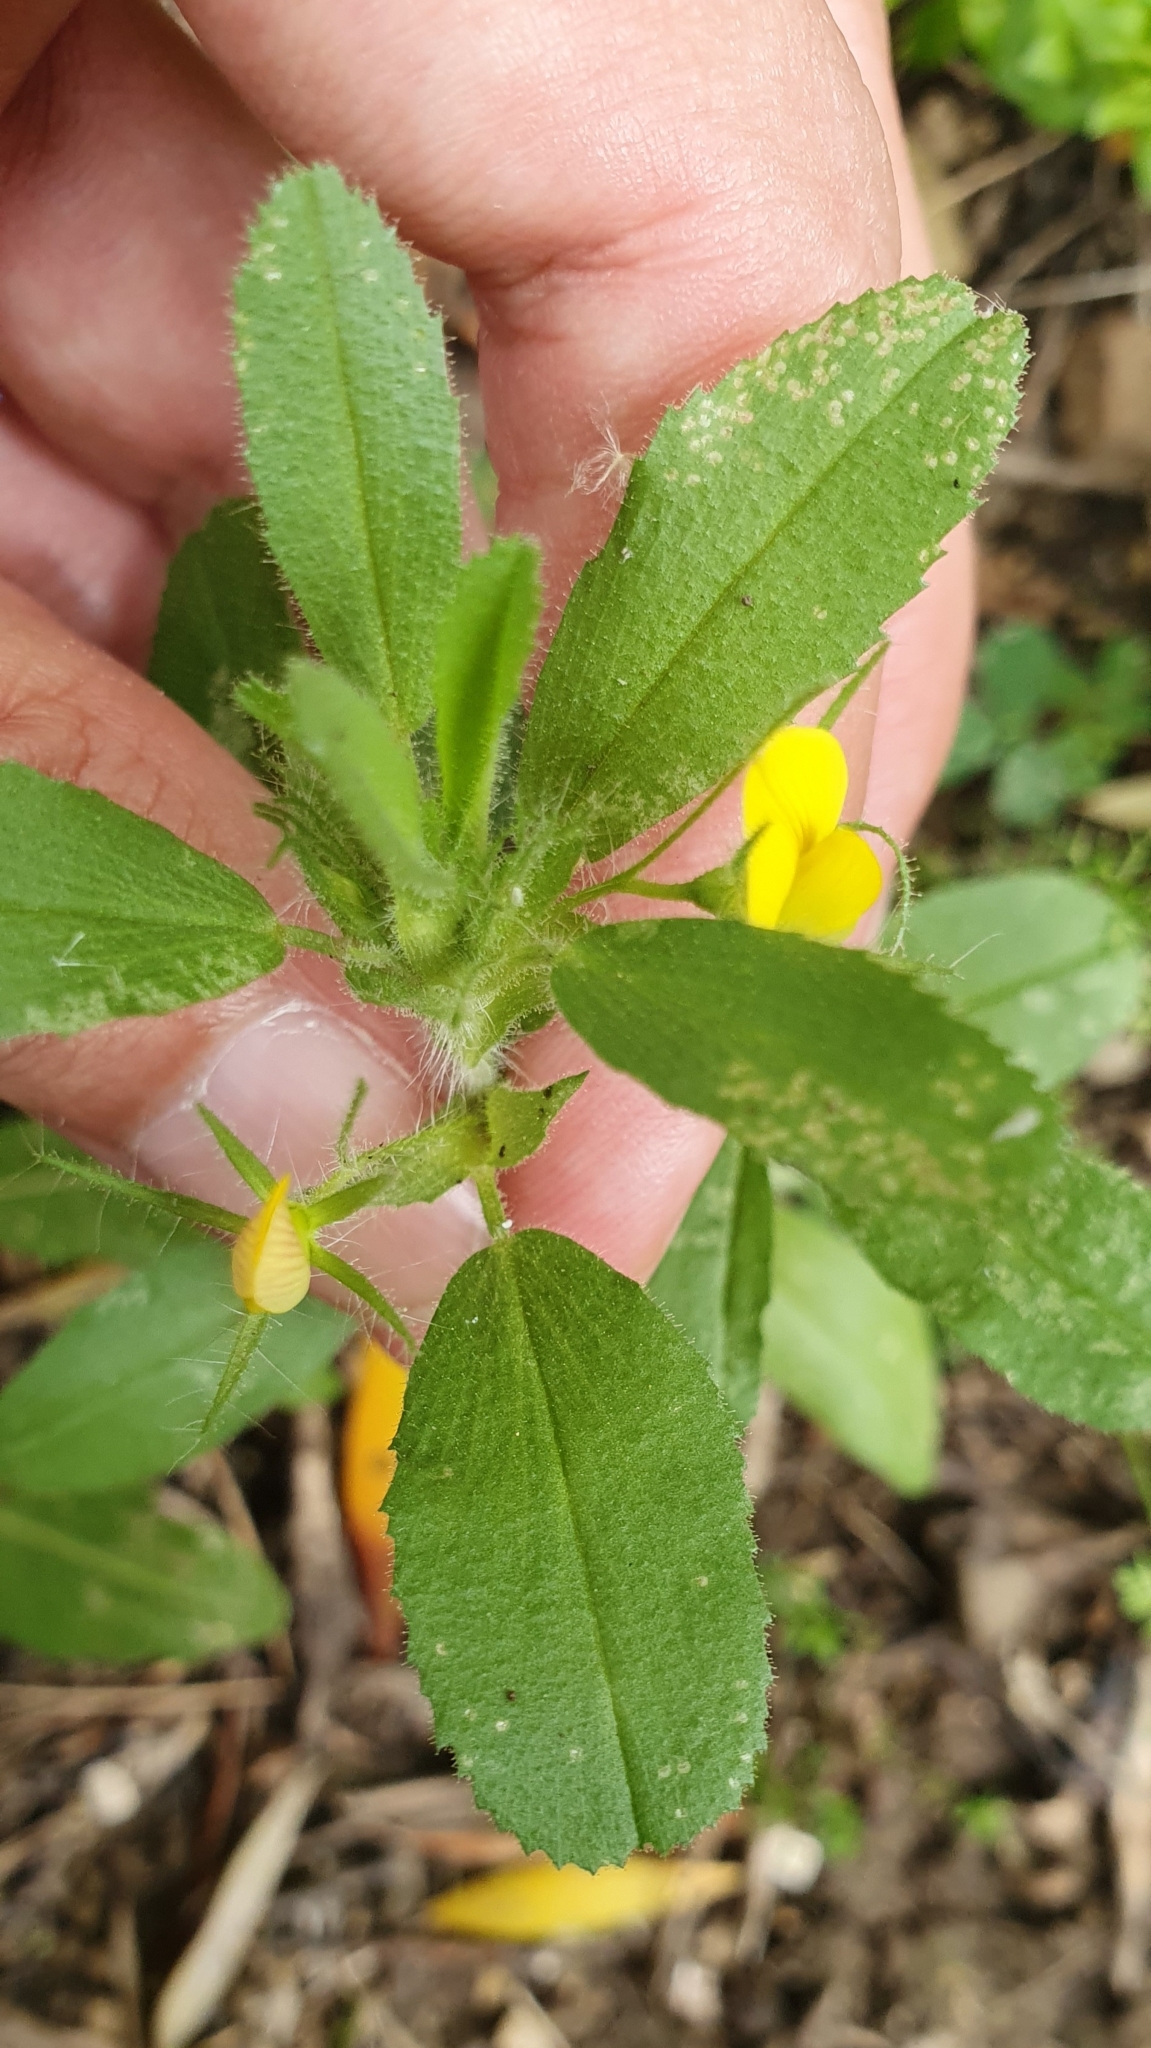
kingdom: Plantae
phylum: Tracheophyta
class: Magnoliopsida
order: Fabales
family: Fabaceae
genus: Ononis
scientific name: Ononis viscosa
